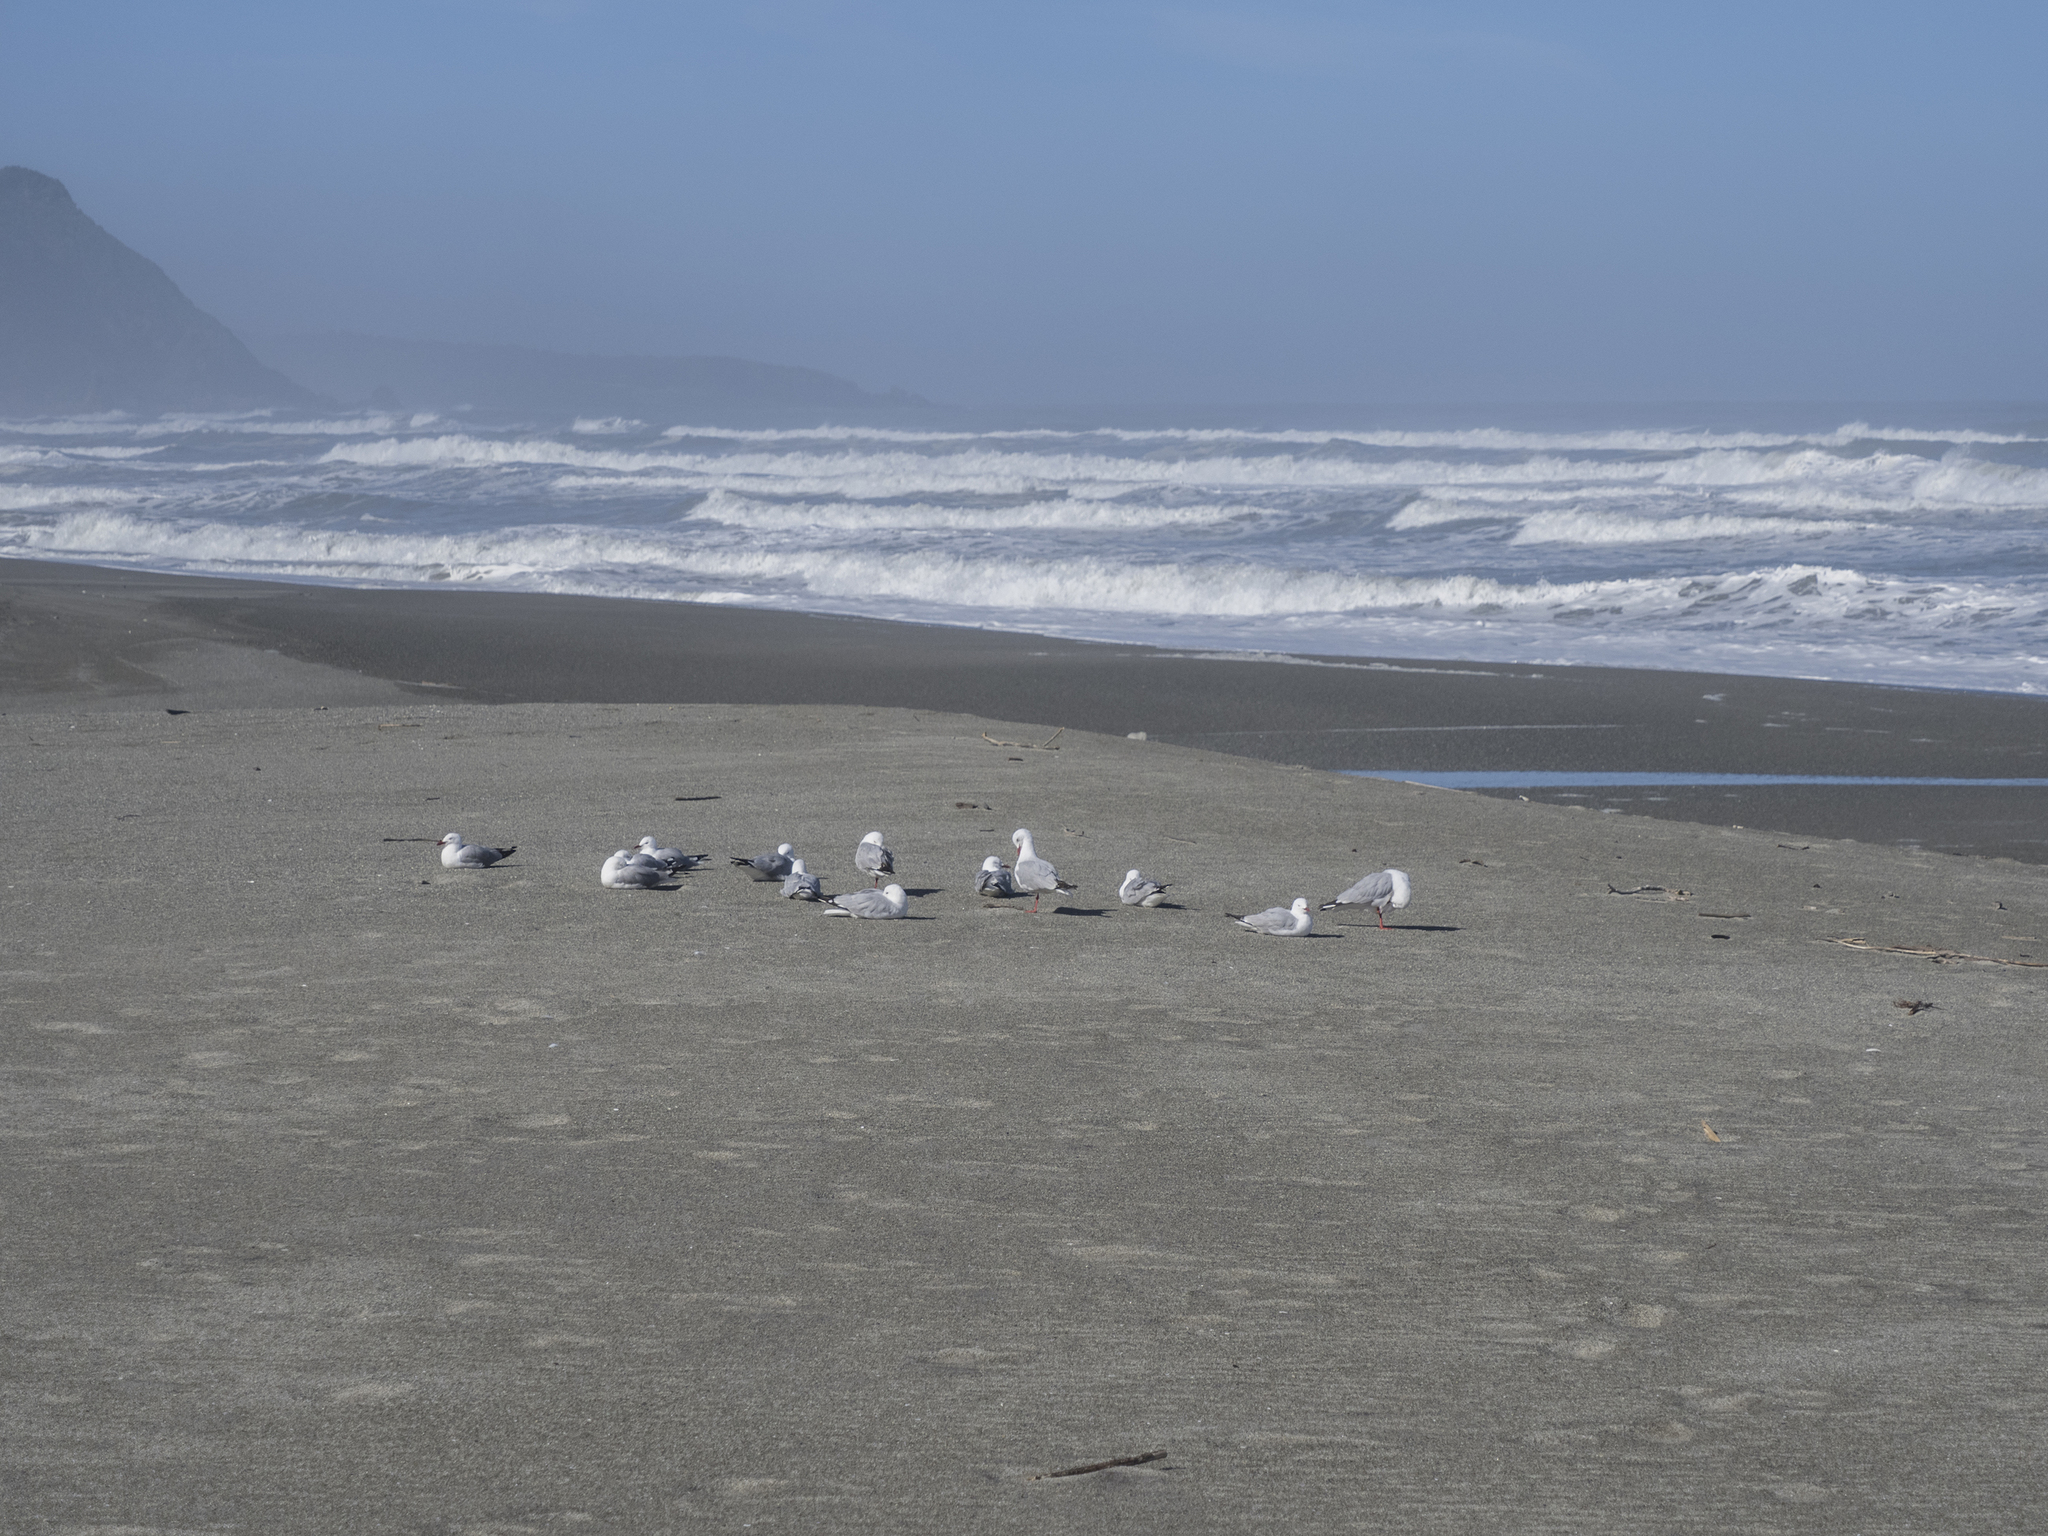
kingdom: Animalia
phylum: Chordata
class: Aves
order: Charadriiformes
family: Laridae
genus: Chroicocephalus
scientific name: Chroicocephalus novaehollandiae
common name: Silver gull
